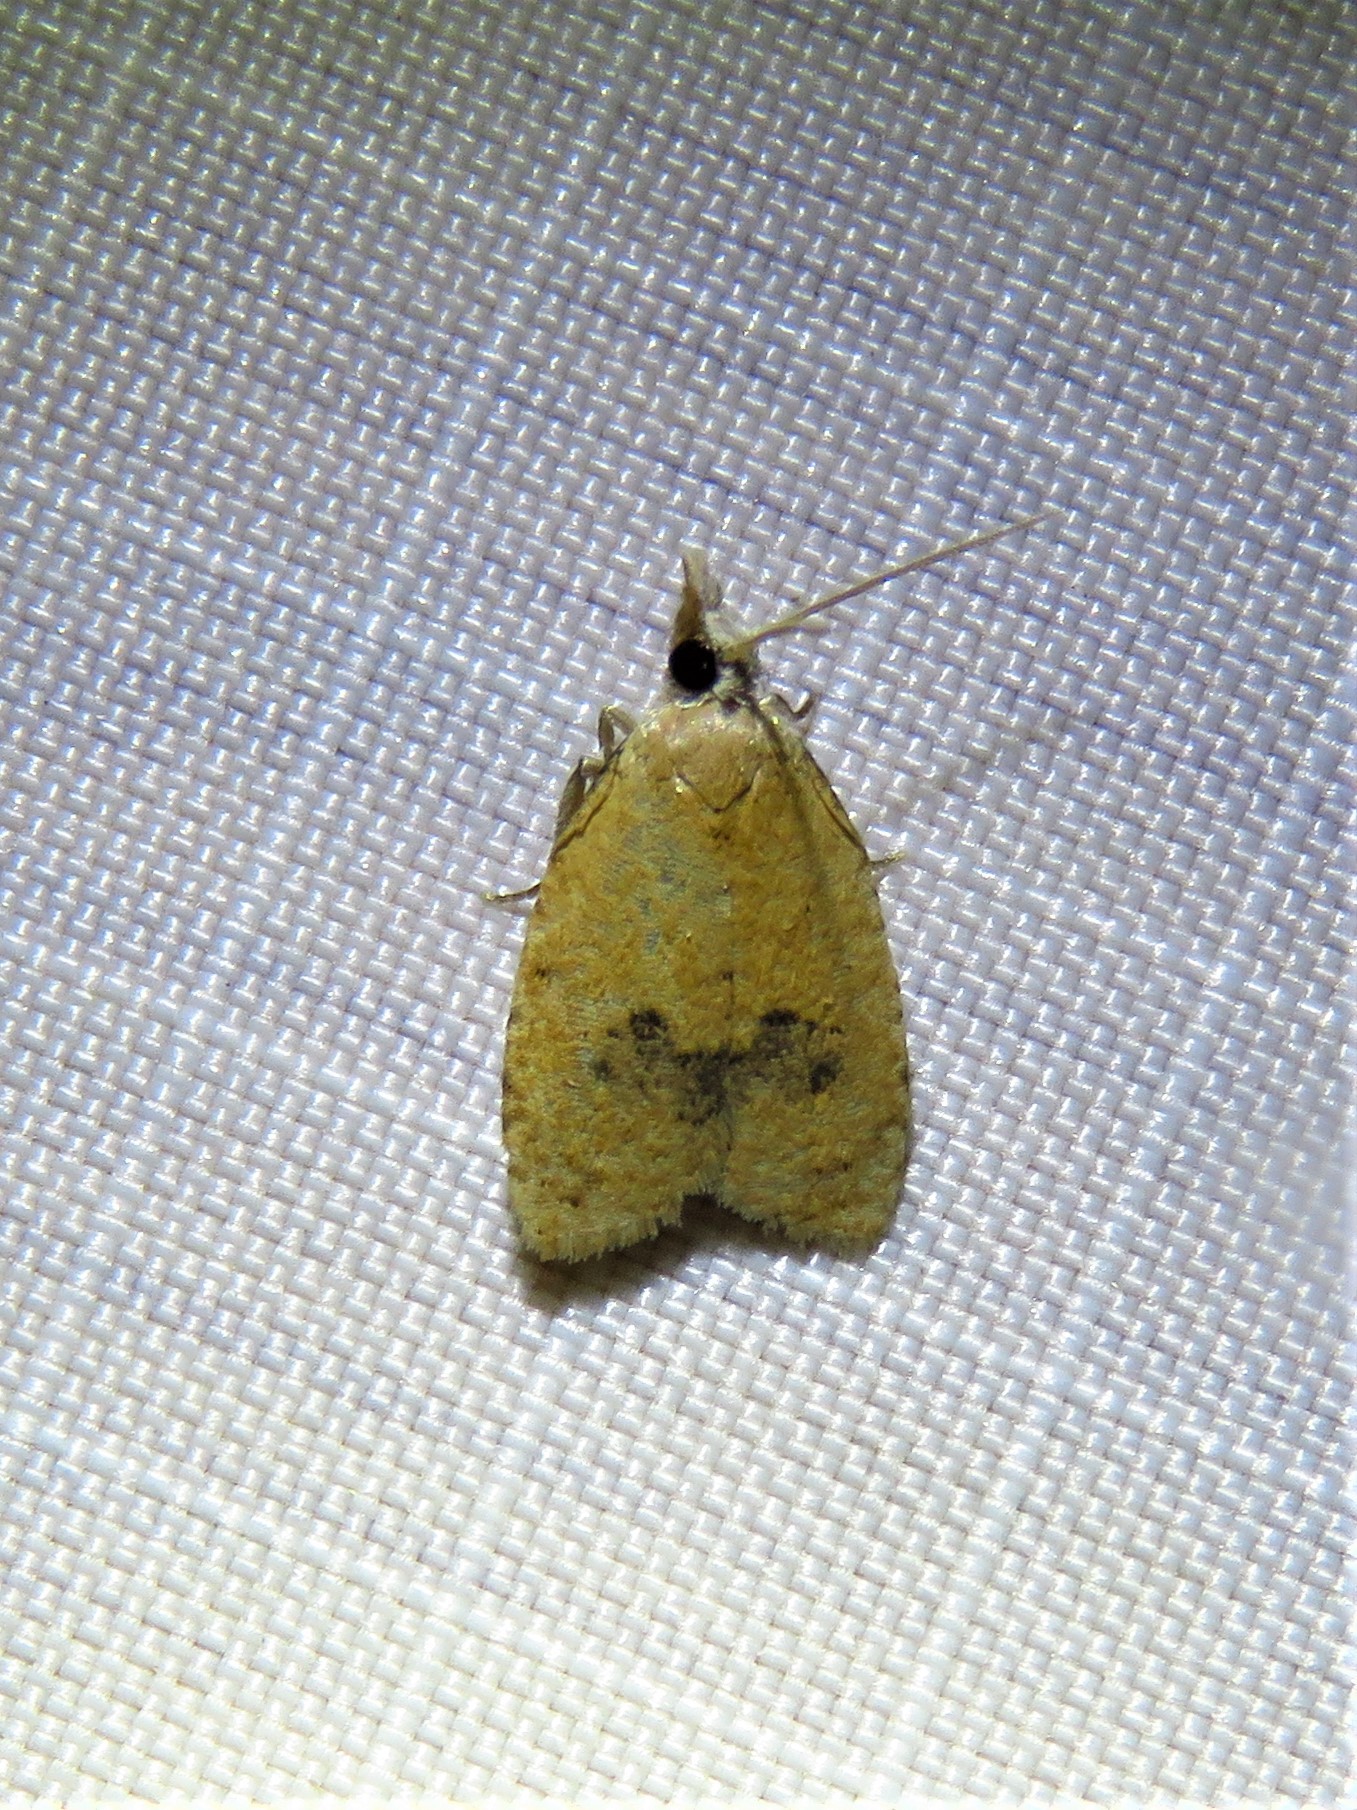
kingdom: Animalia
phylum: Arthropoda
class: Insecta
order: Lepidoptera
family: Tortricidae
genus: Sparganothoides
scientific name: Sparganothoides lentiginosana
